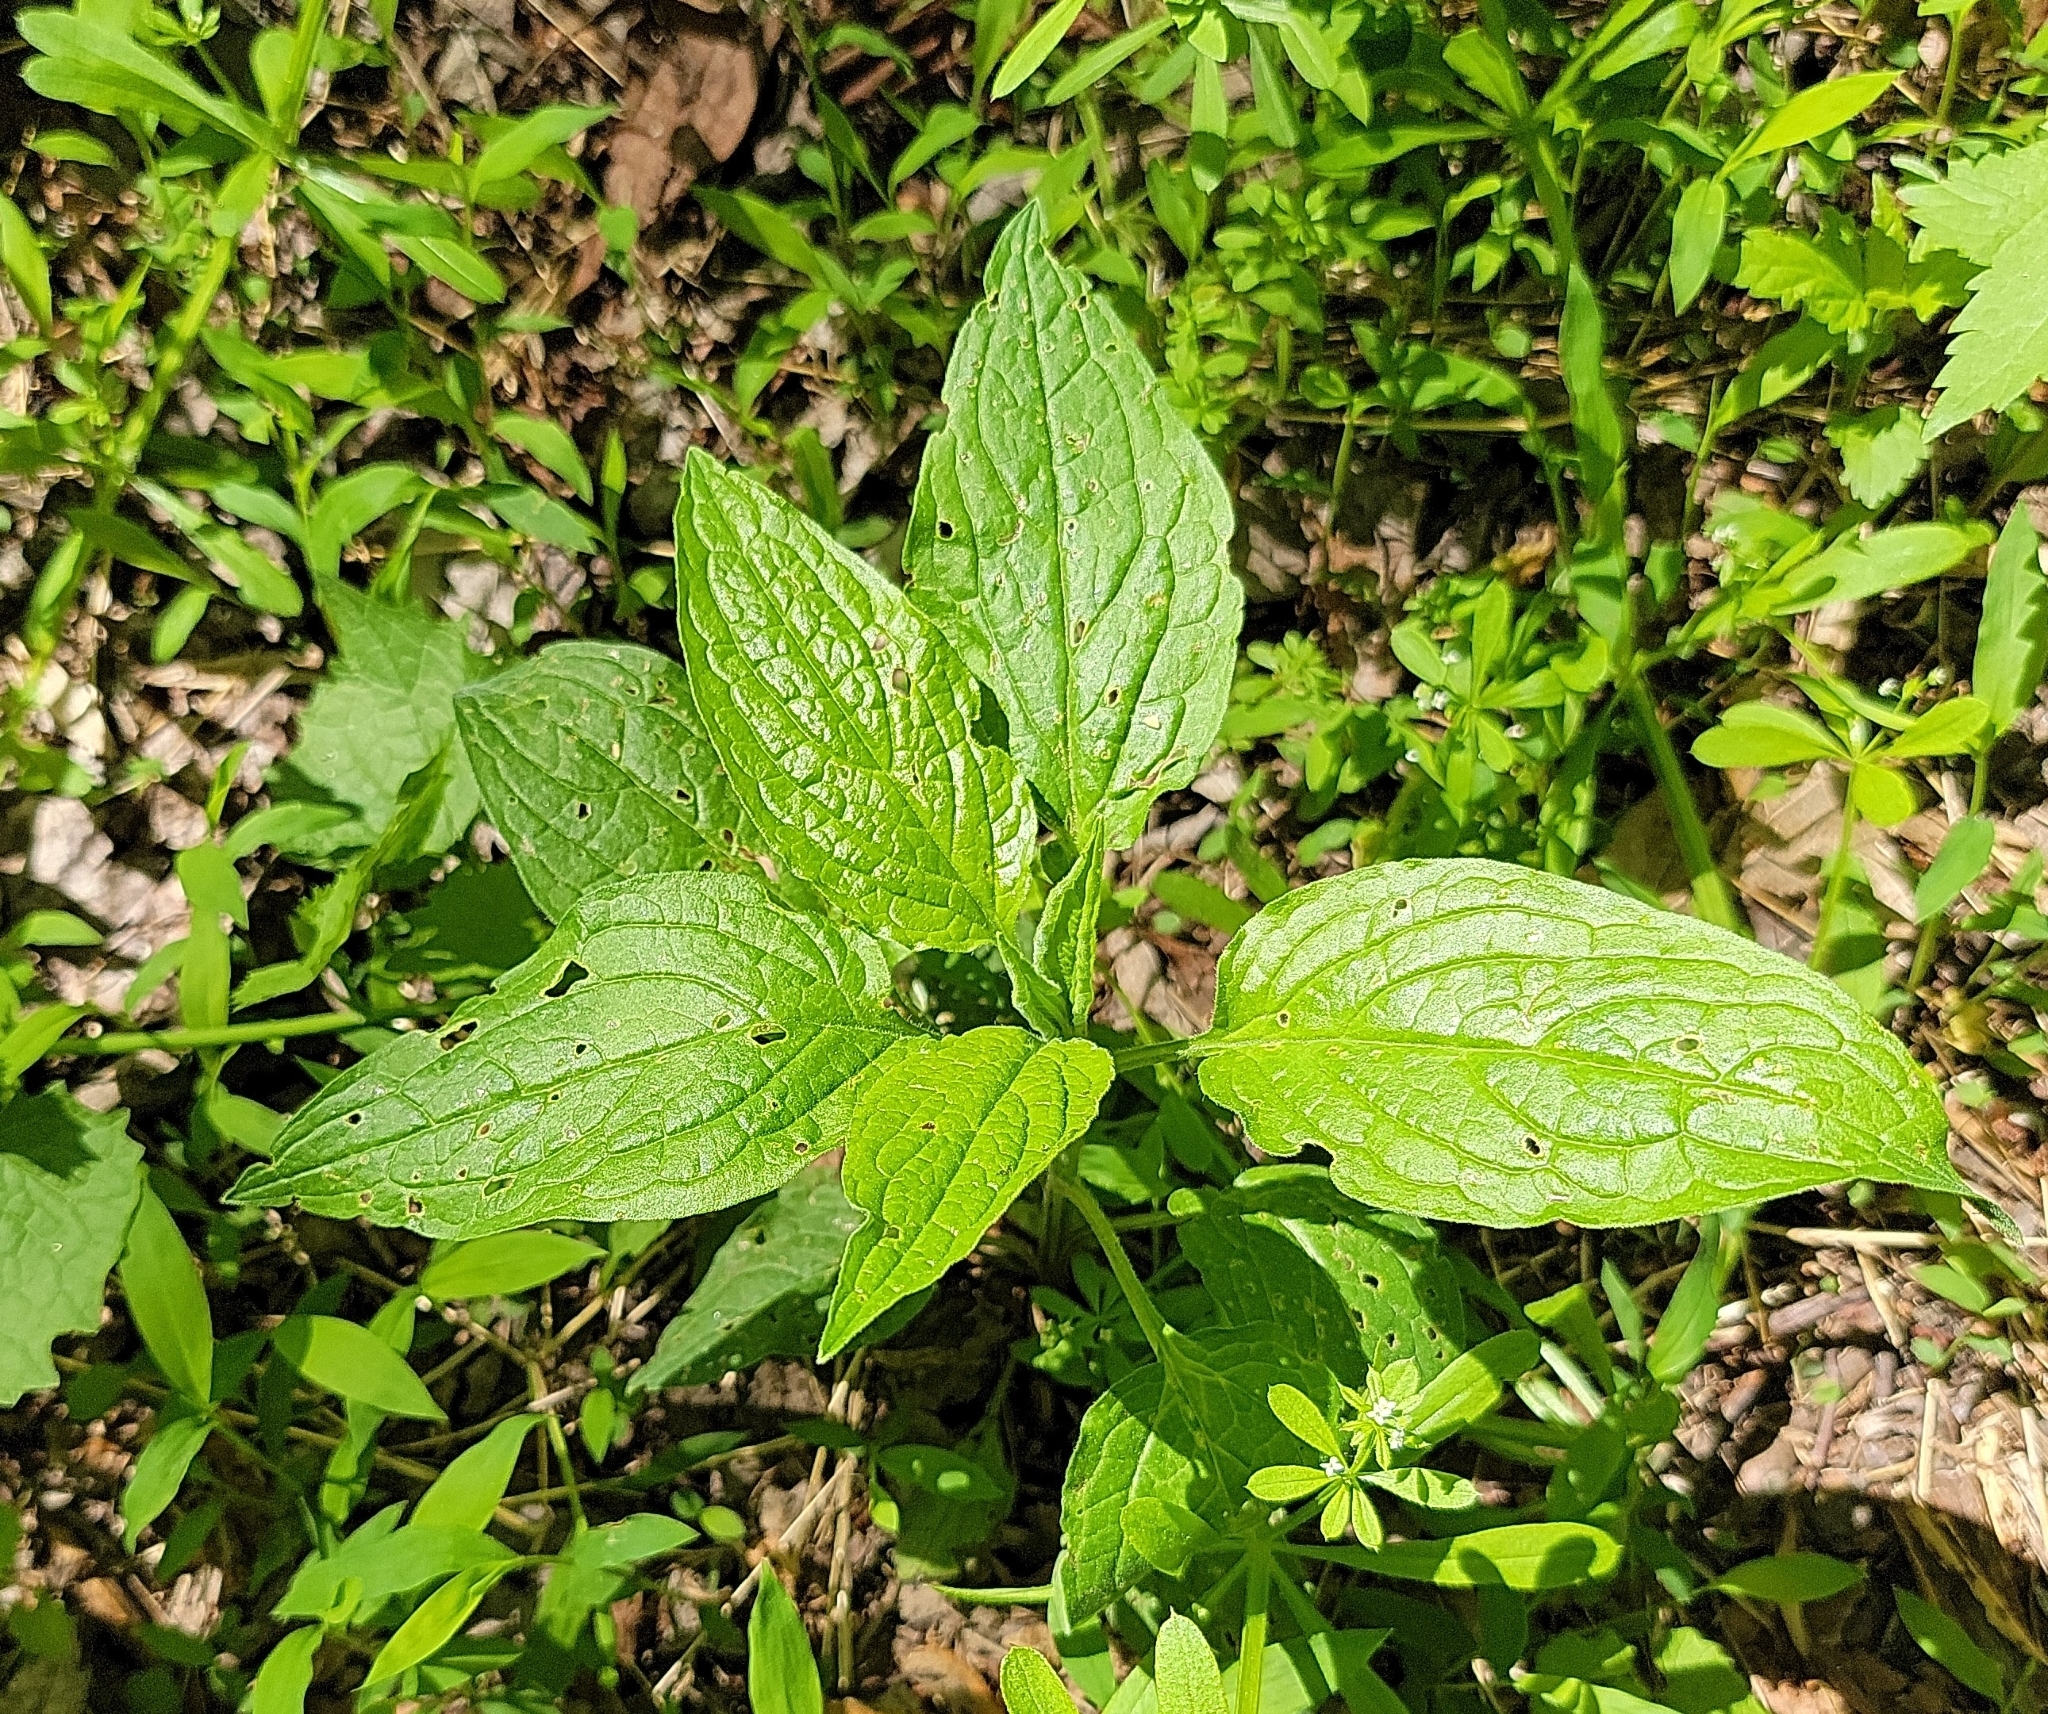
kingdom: Plantae
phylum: Tracheophyta
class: Magnoliopsida
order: Boraginales
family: Boraginaceae
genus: Hackelia
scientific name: Hackelia virginiana
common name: Beggar's-lice
